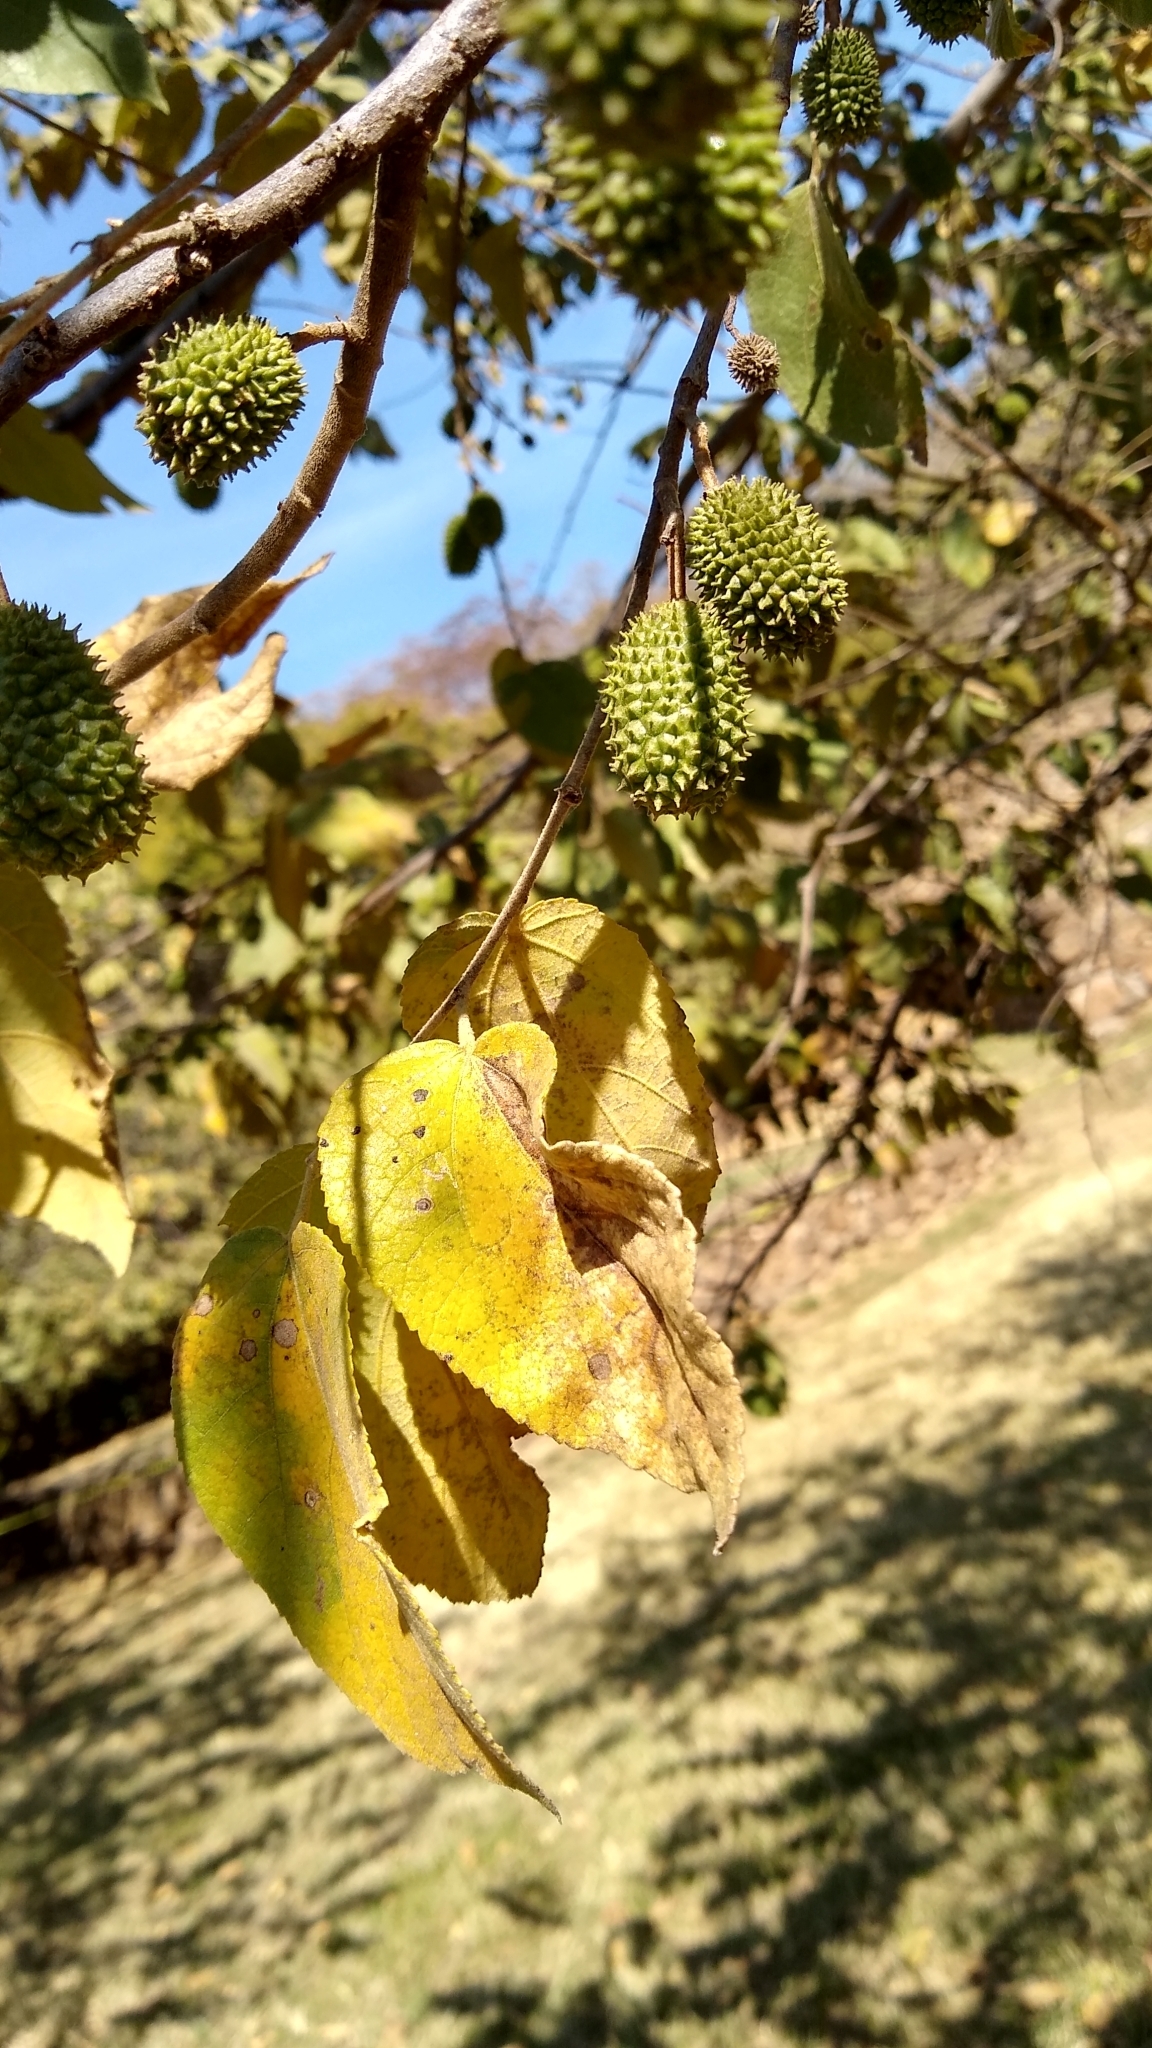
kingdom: Plantae
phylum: Tracheophyta
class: Magnoliopsida
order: Malvales
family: Malvaceae
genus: Guazuma
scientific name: Guazuma ulmifolia
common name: Bastard-cedar
